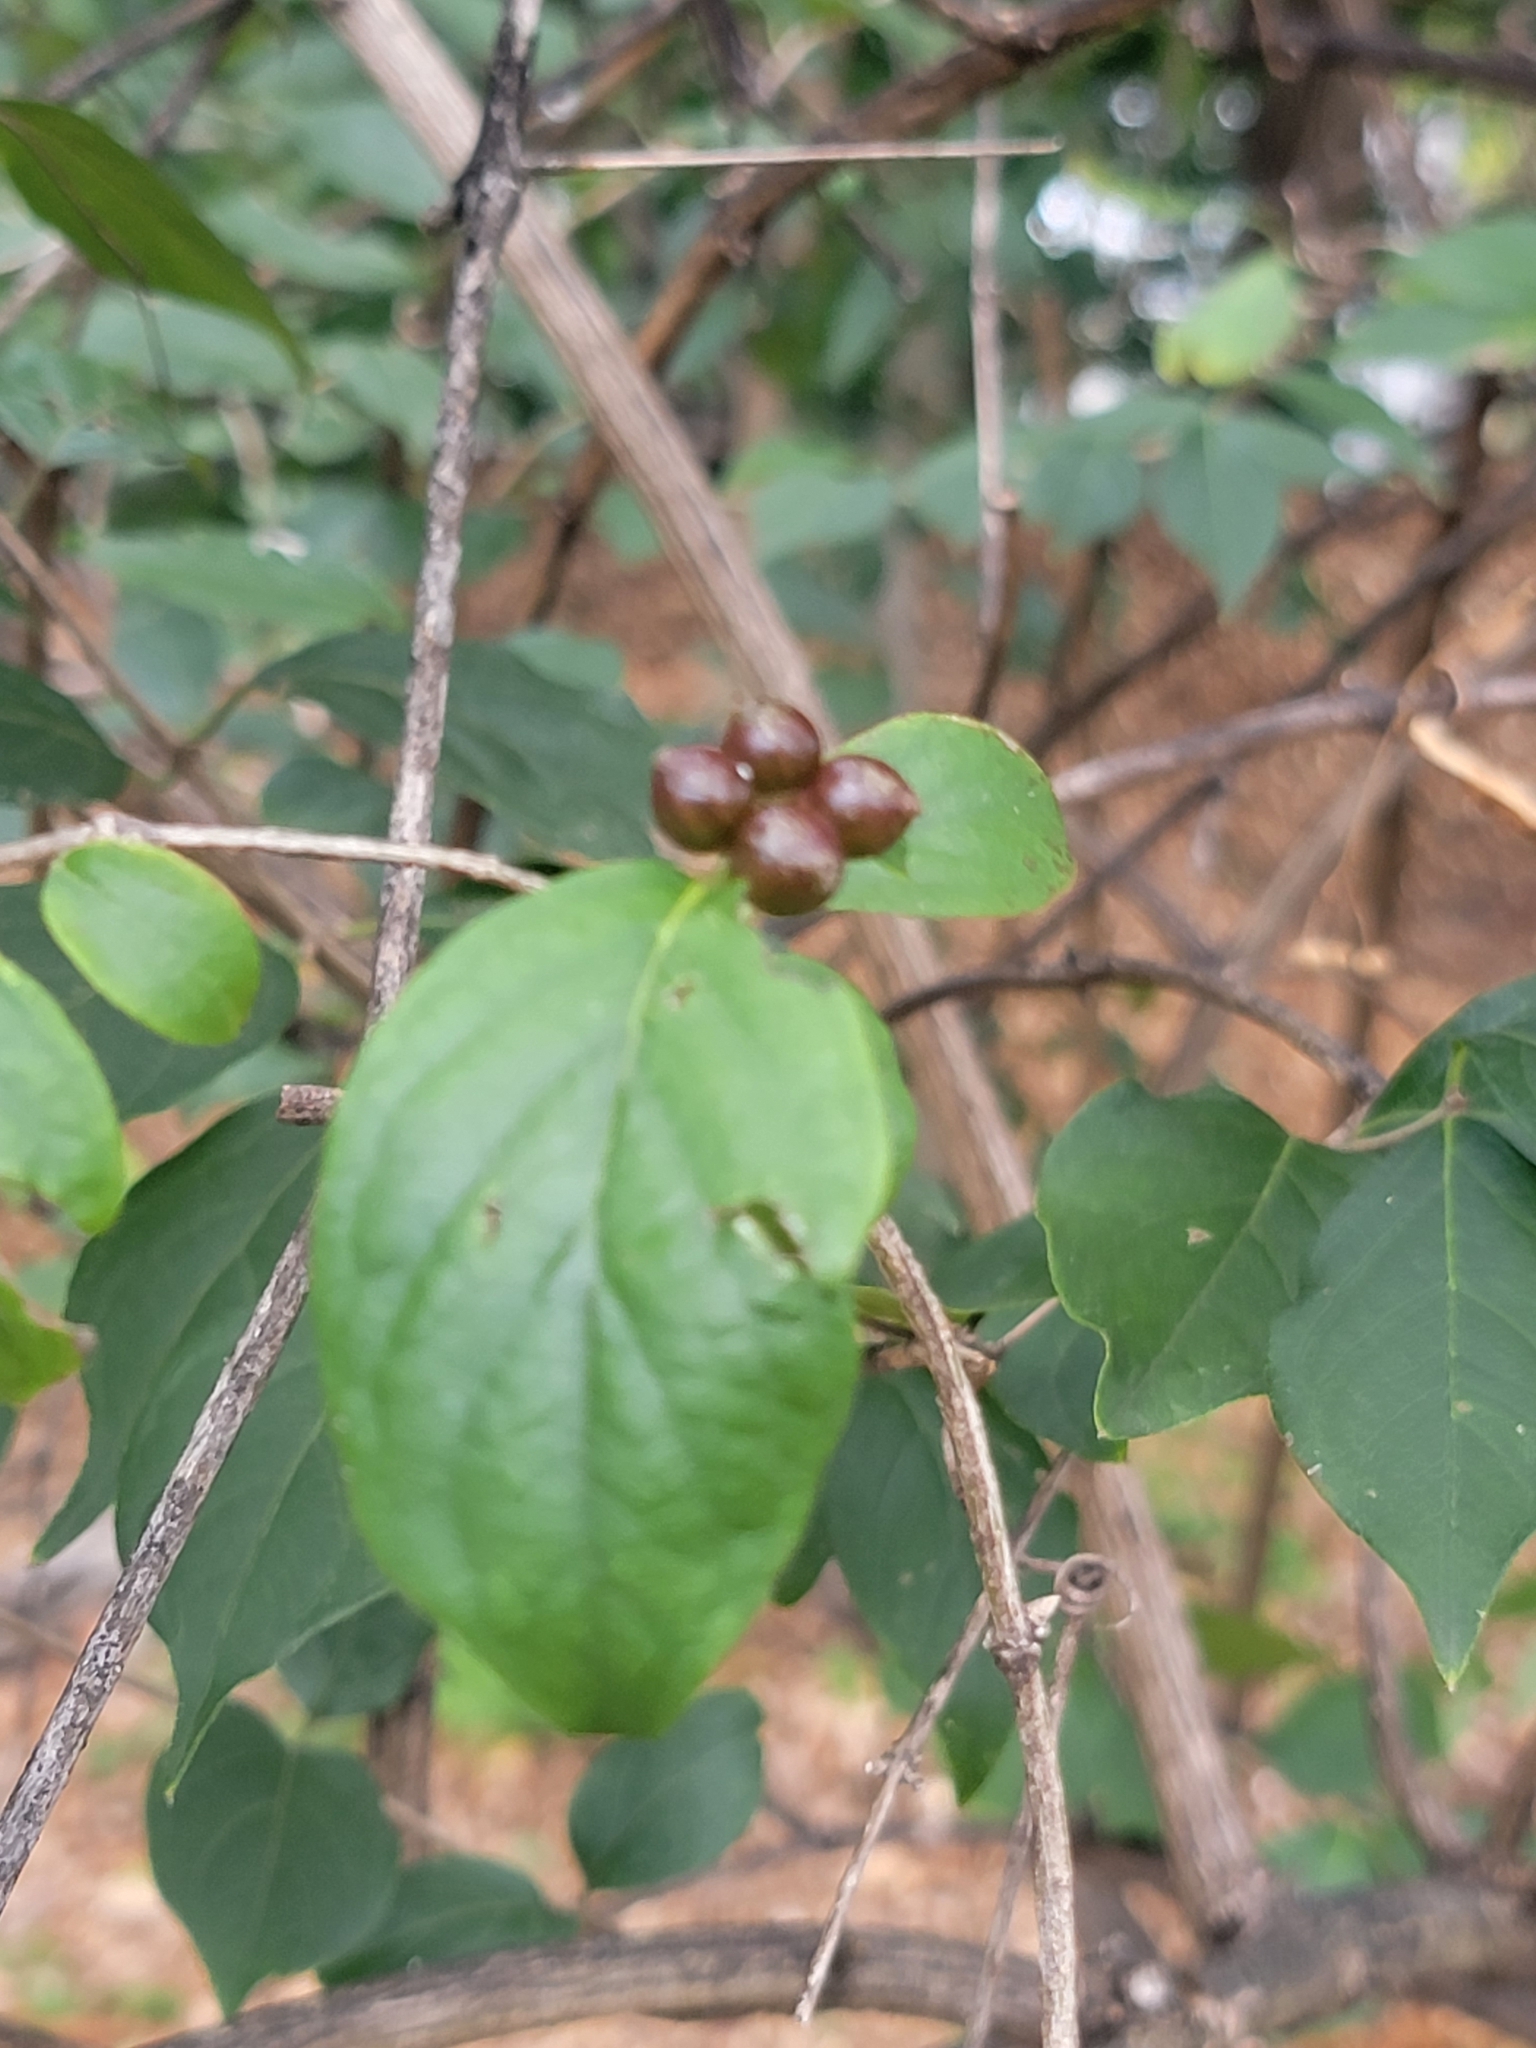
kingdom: Plantae
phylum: Tracheophyta
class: Magnoliopsida
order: Dipsacales
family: Caprifoliaceae
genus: Lonicera
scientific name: Lonicera maackii
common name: Amur honeysuckle
